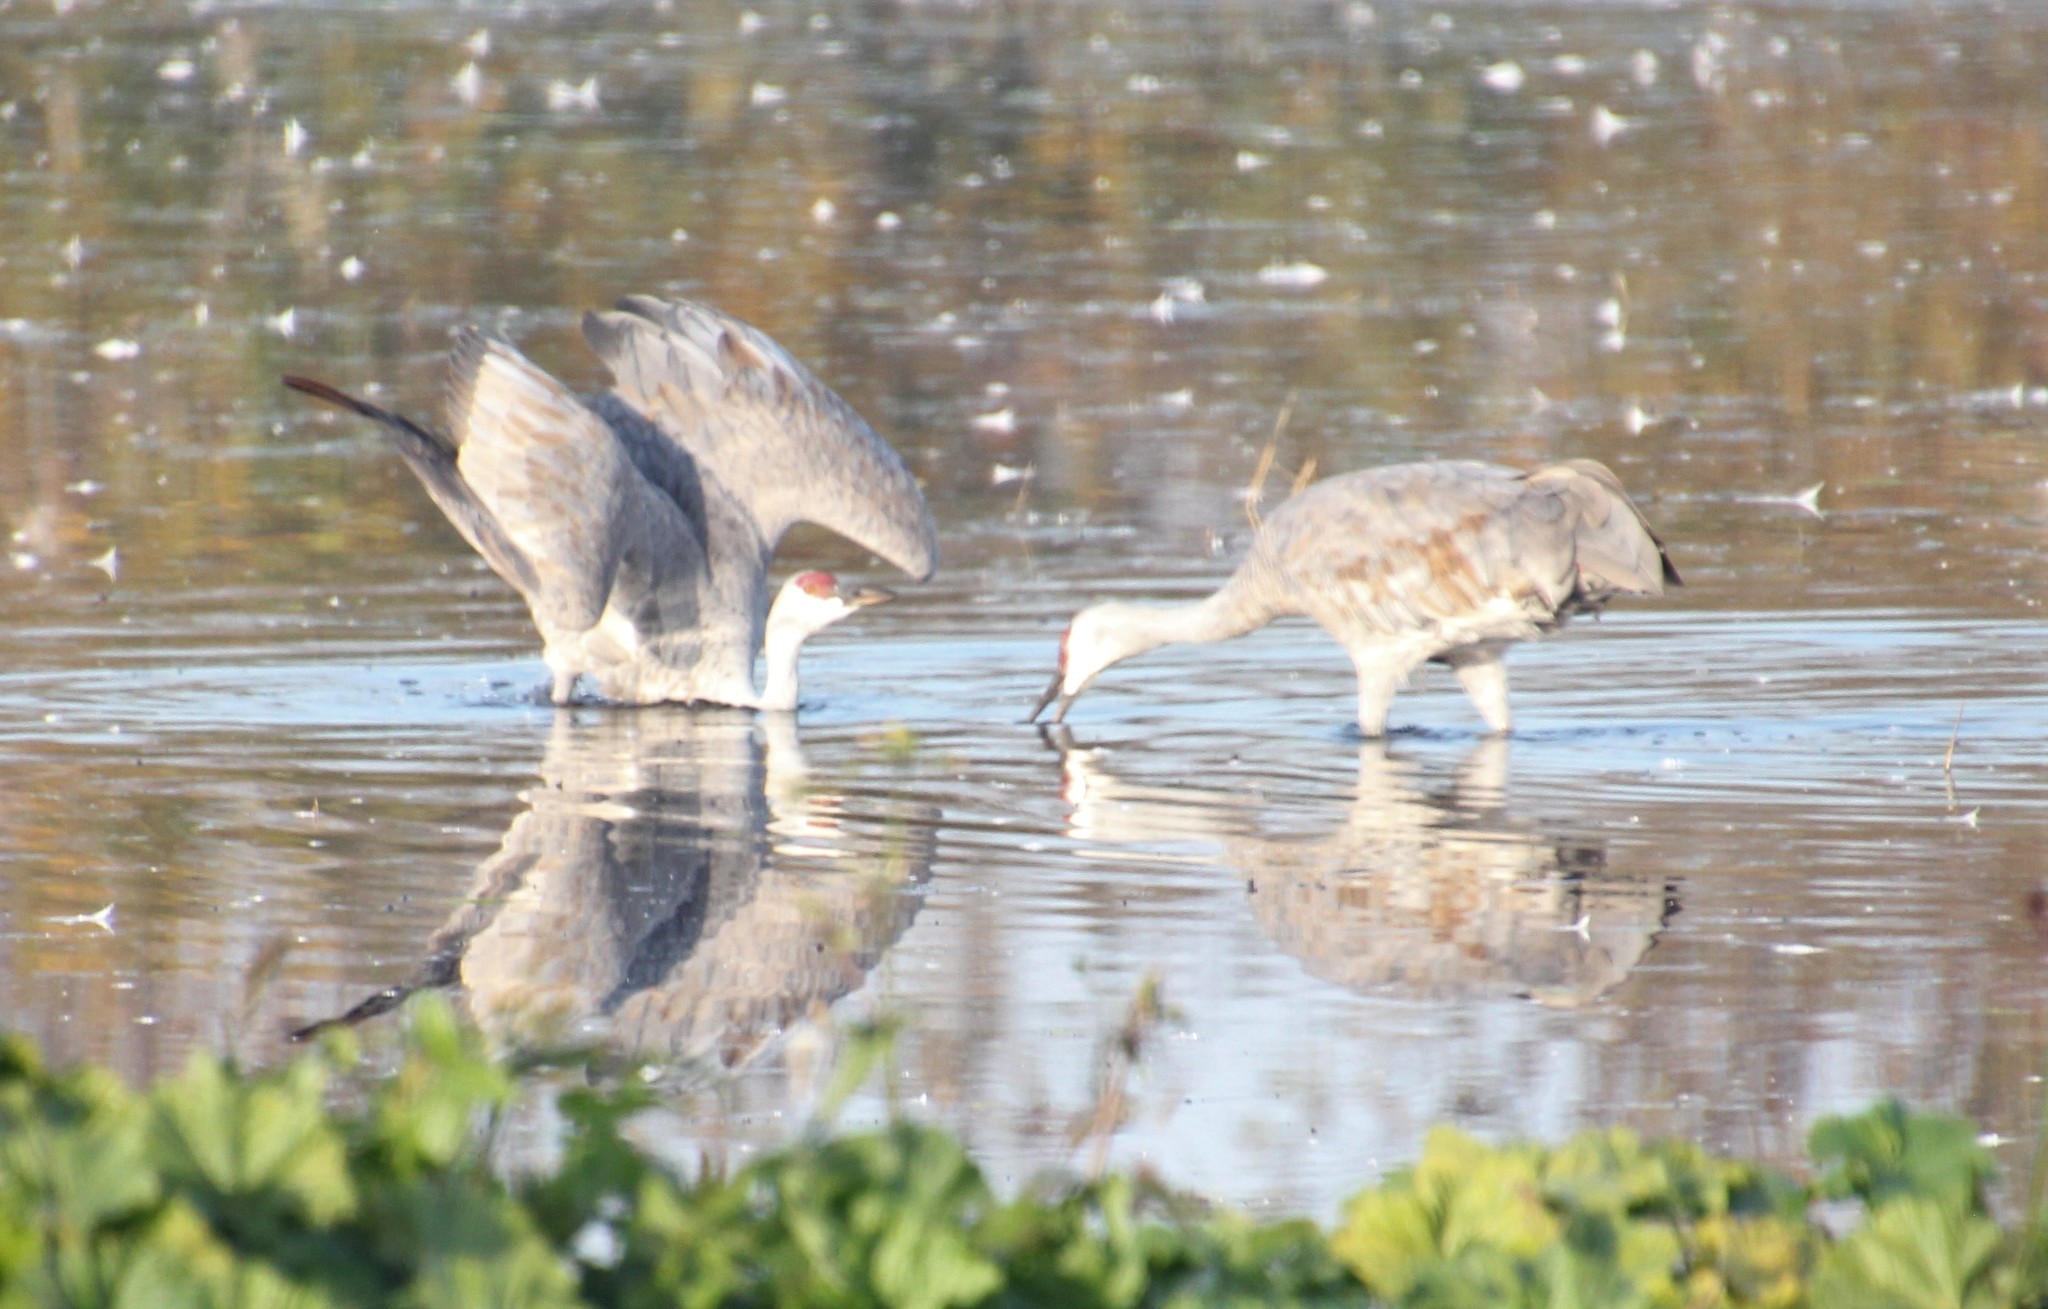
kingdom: Animalia
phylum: Chordata
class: Aves
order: Gruiformes
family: Gruidae
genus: Grus
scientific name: Grus canadensis
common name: Sandhill crane
